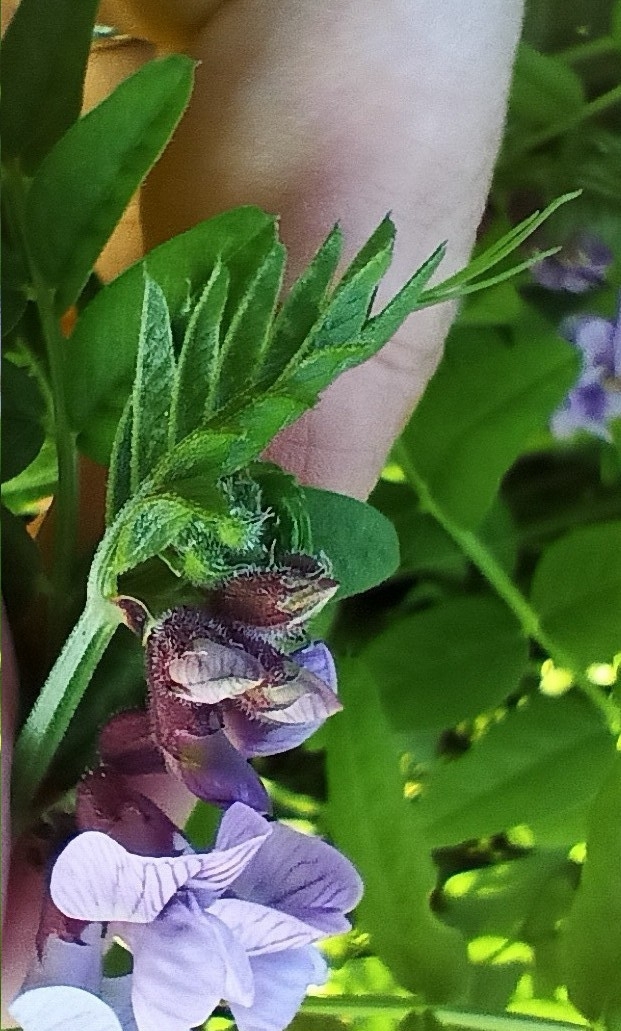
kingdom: Plantae
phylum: Tracheophyta
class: Magnoliopsida
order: Fabales
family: Fabaceae
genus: Vicia
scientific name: Vicia sepium
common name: Bush vetch
